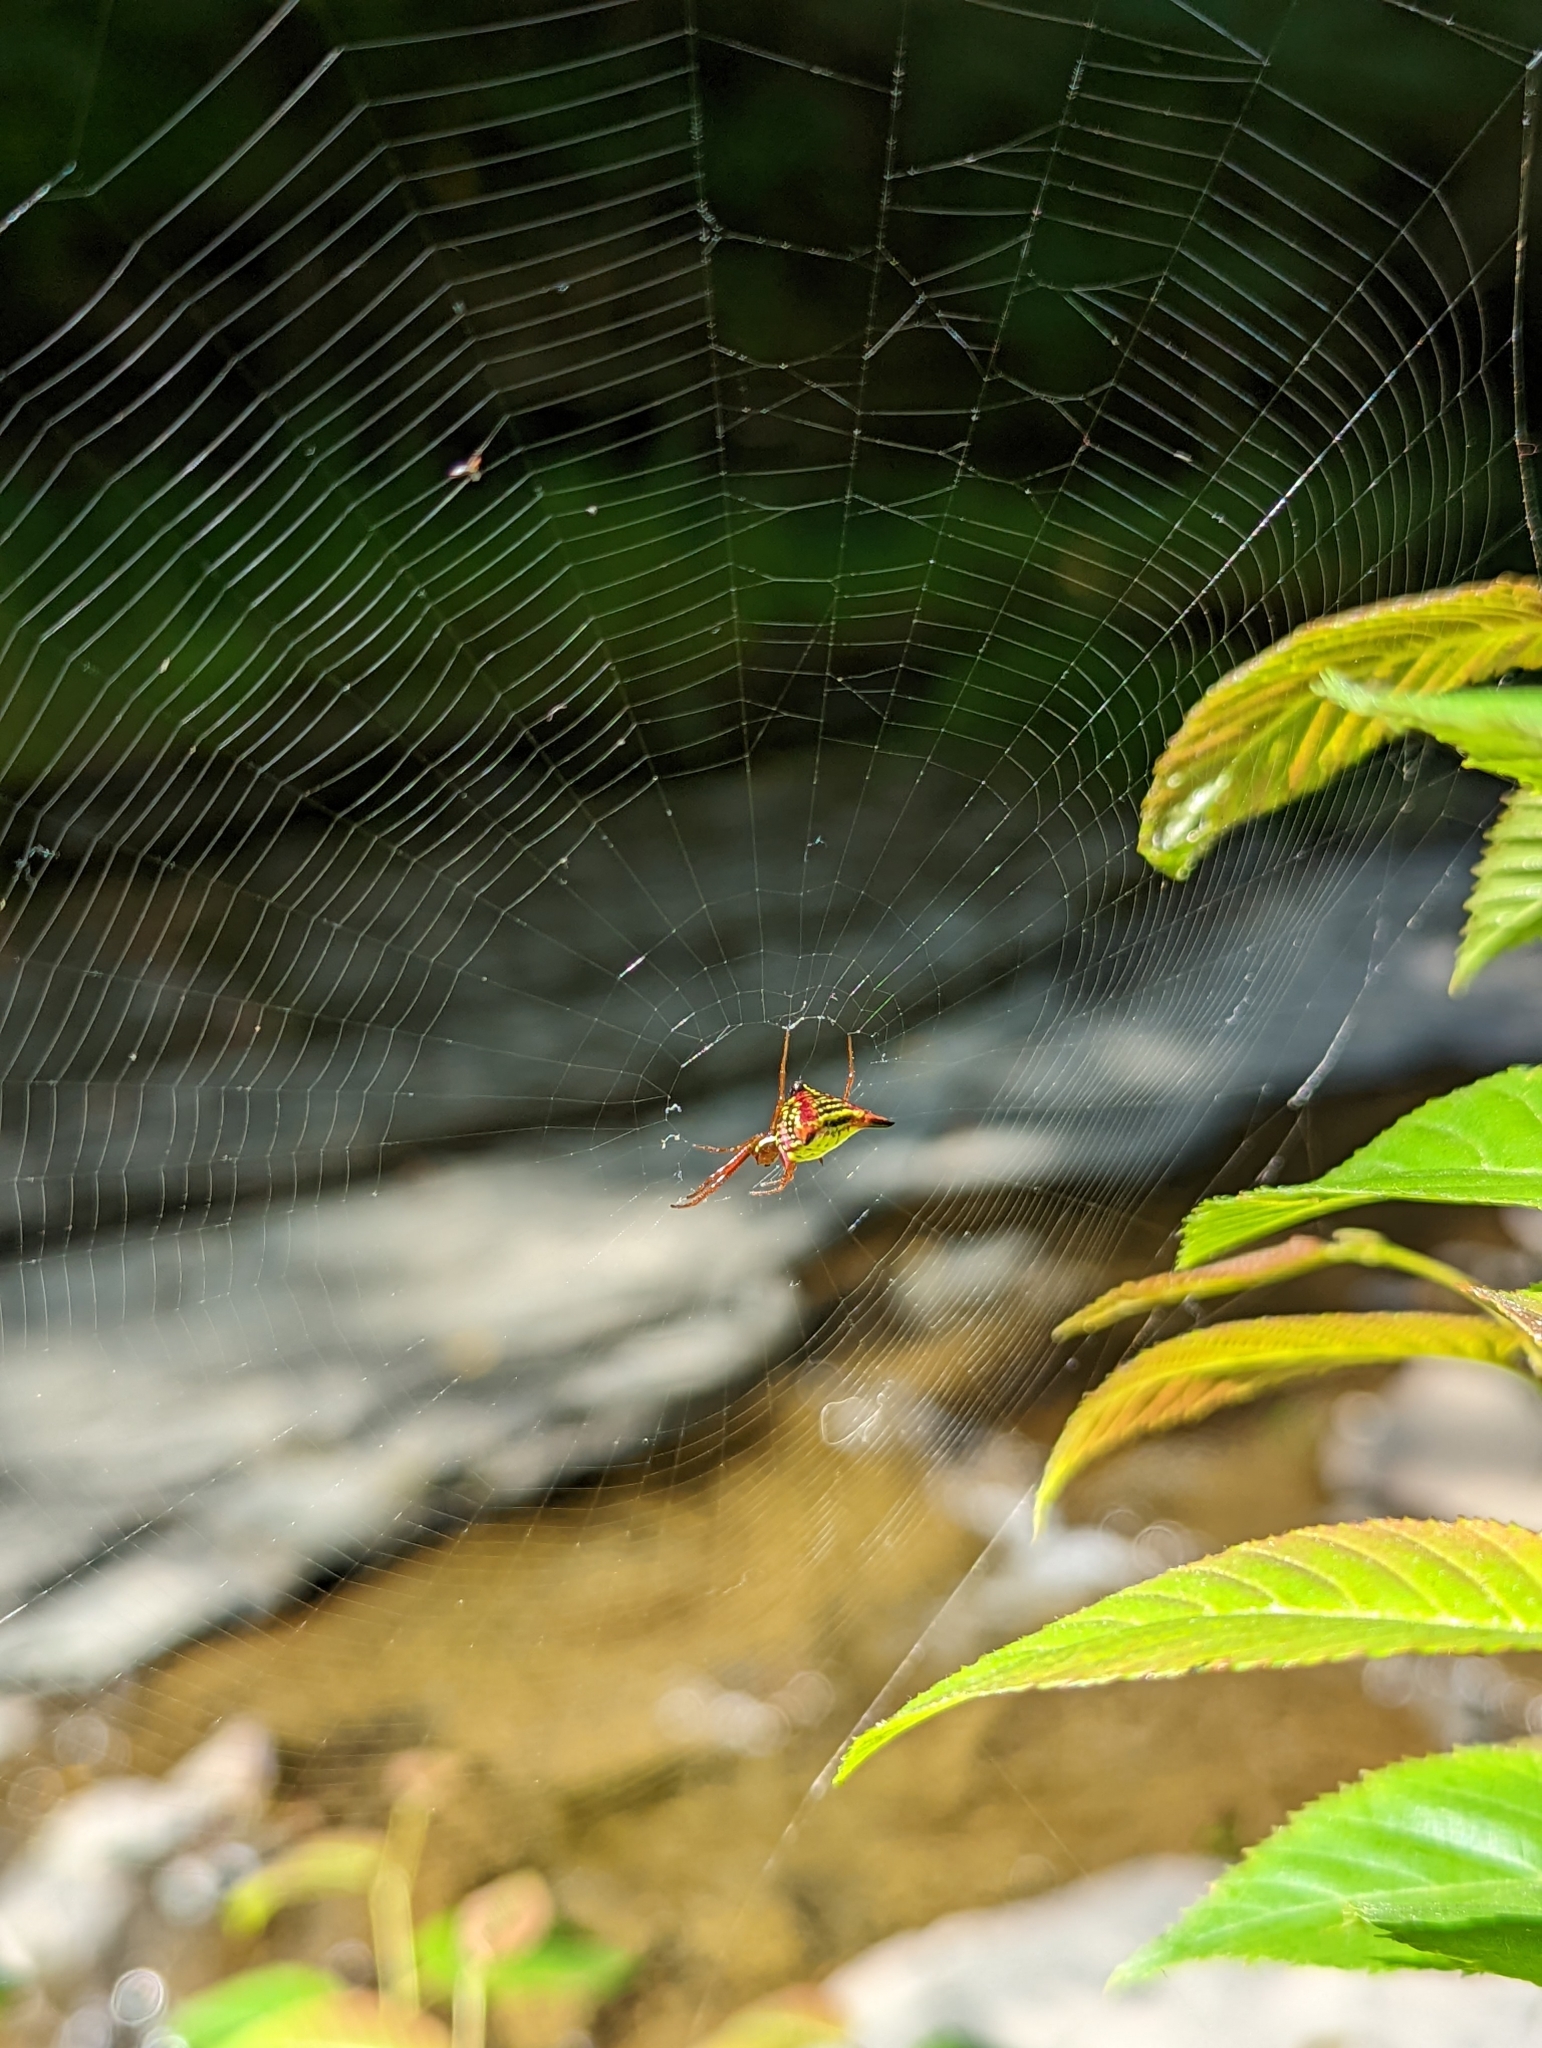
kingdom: Animalia
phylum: Arthropoda
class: Arachnida
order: Araneae
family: Araneidae
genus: Micrathena
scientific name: Micrathena sagittata
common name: Orb weavers
